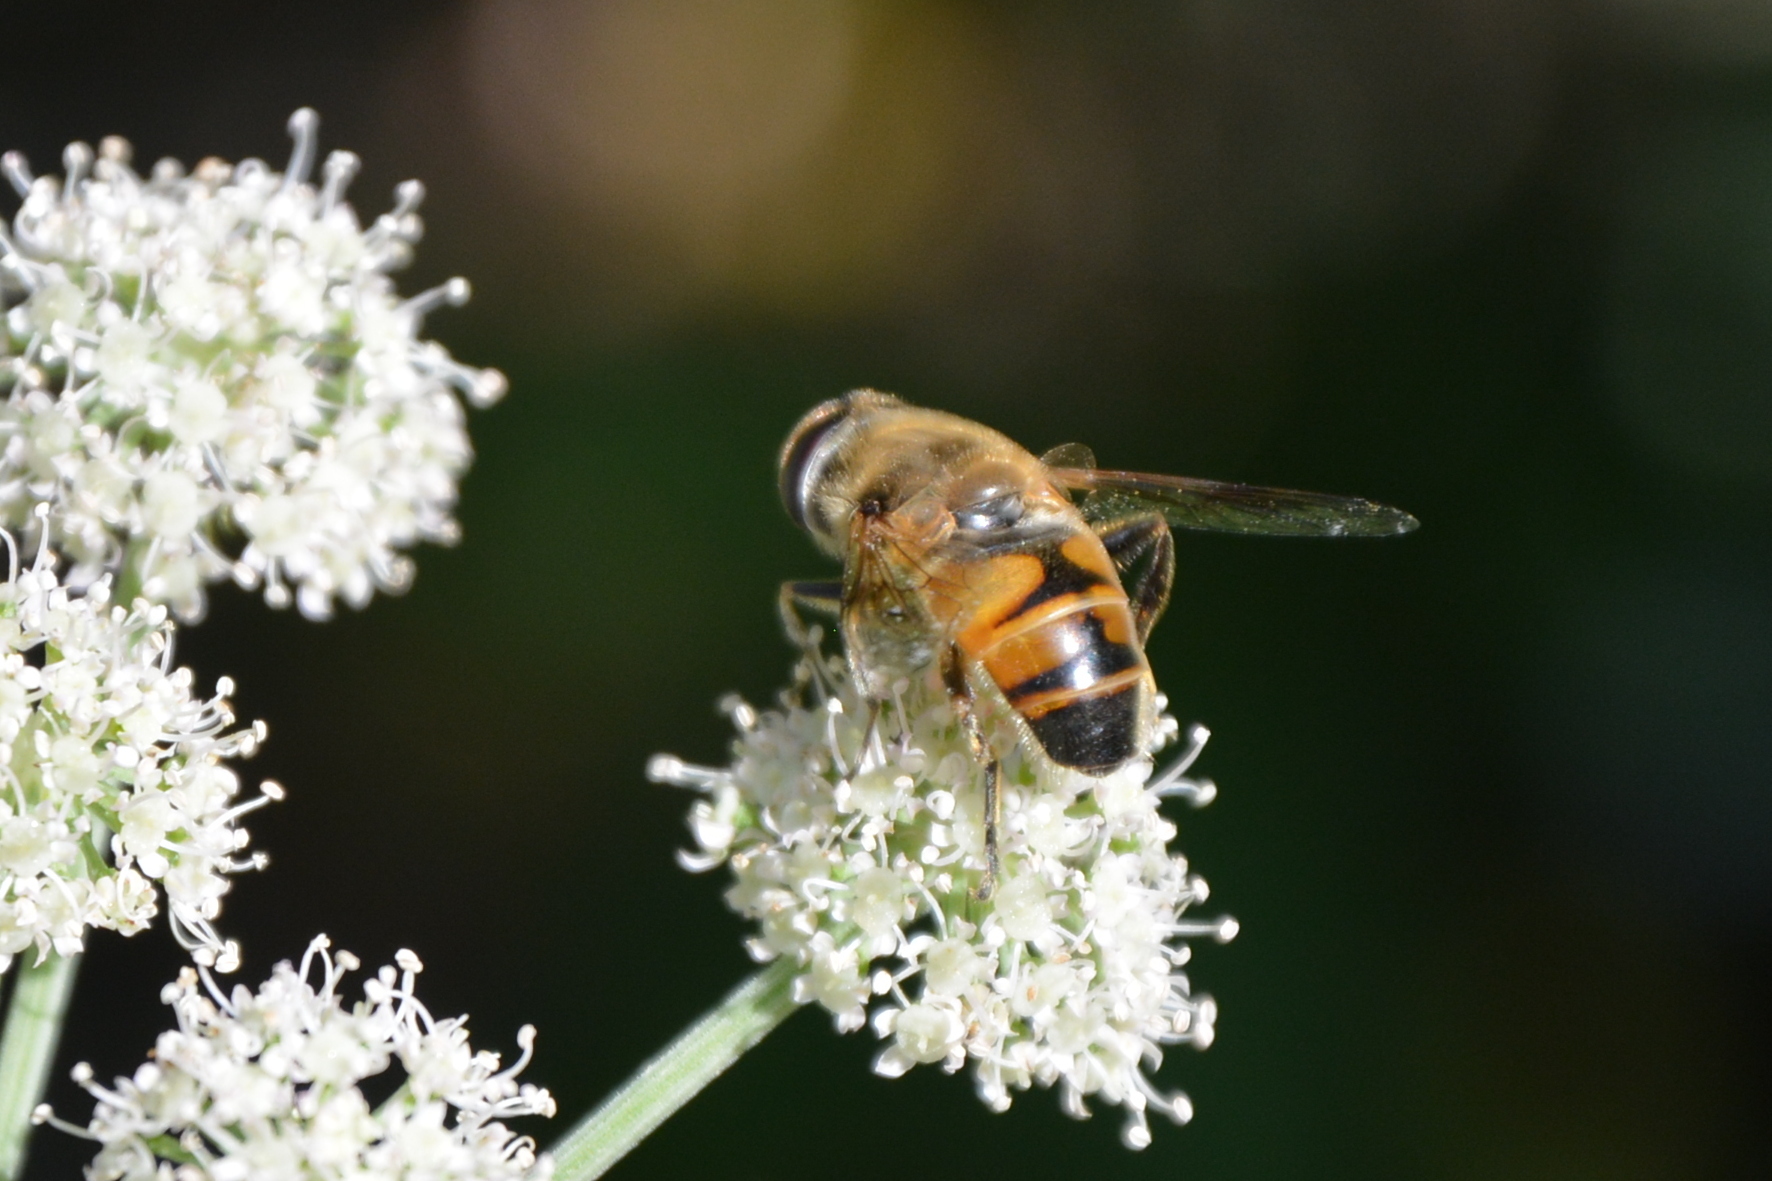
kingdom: Animalia
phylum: Arthropoda
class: Insecta
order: Diptera
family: Syrphidae
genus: Eristalis
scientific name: Eristalis tenax
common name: Drone fly
